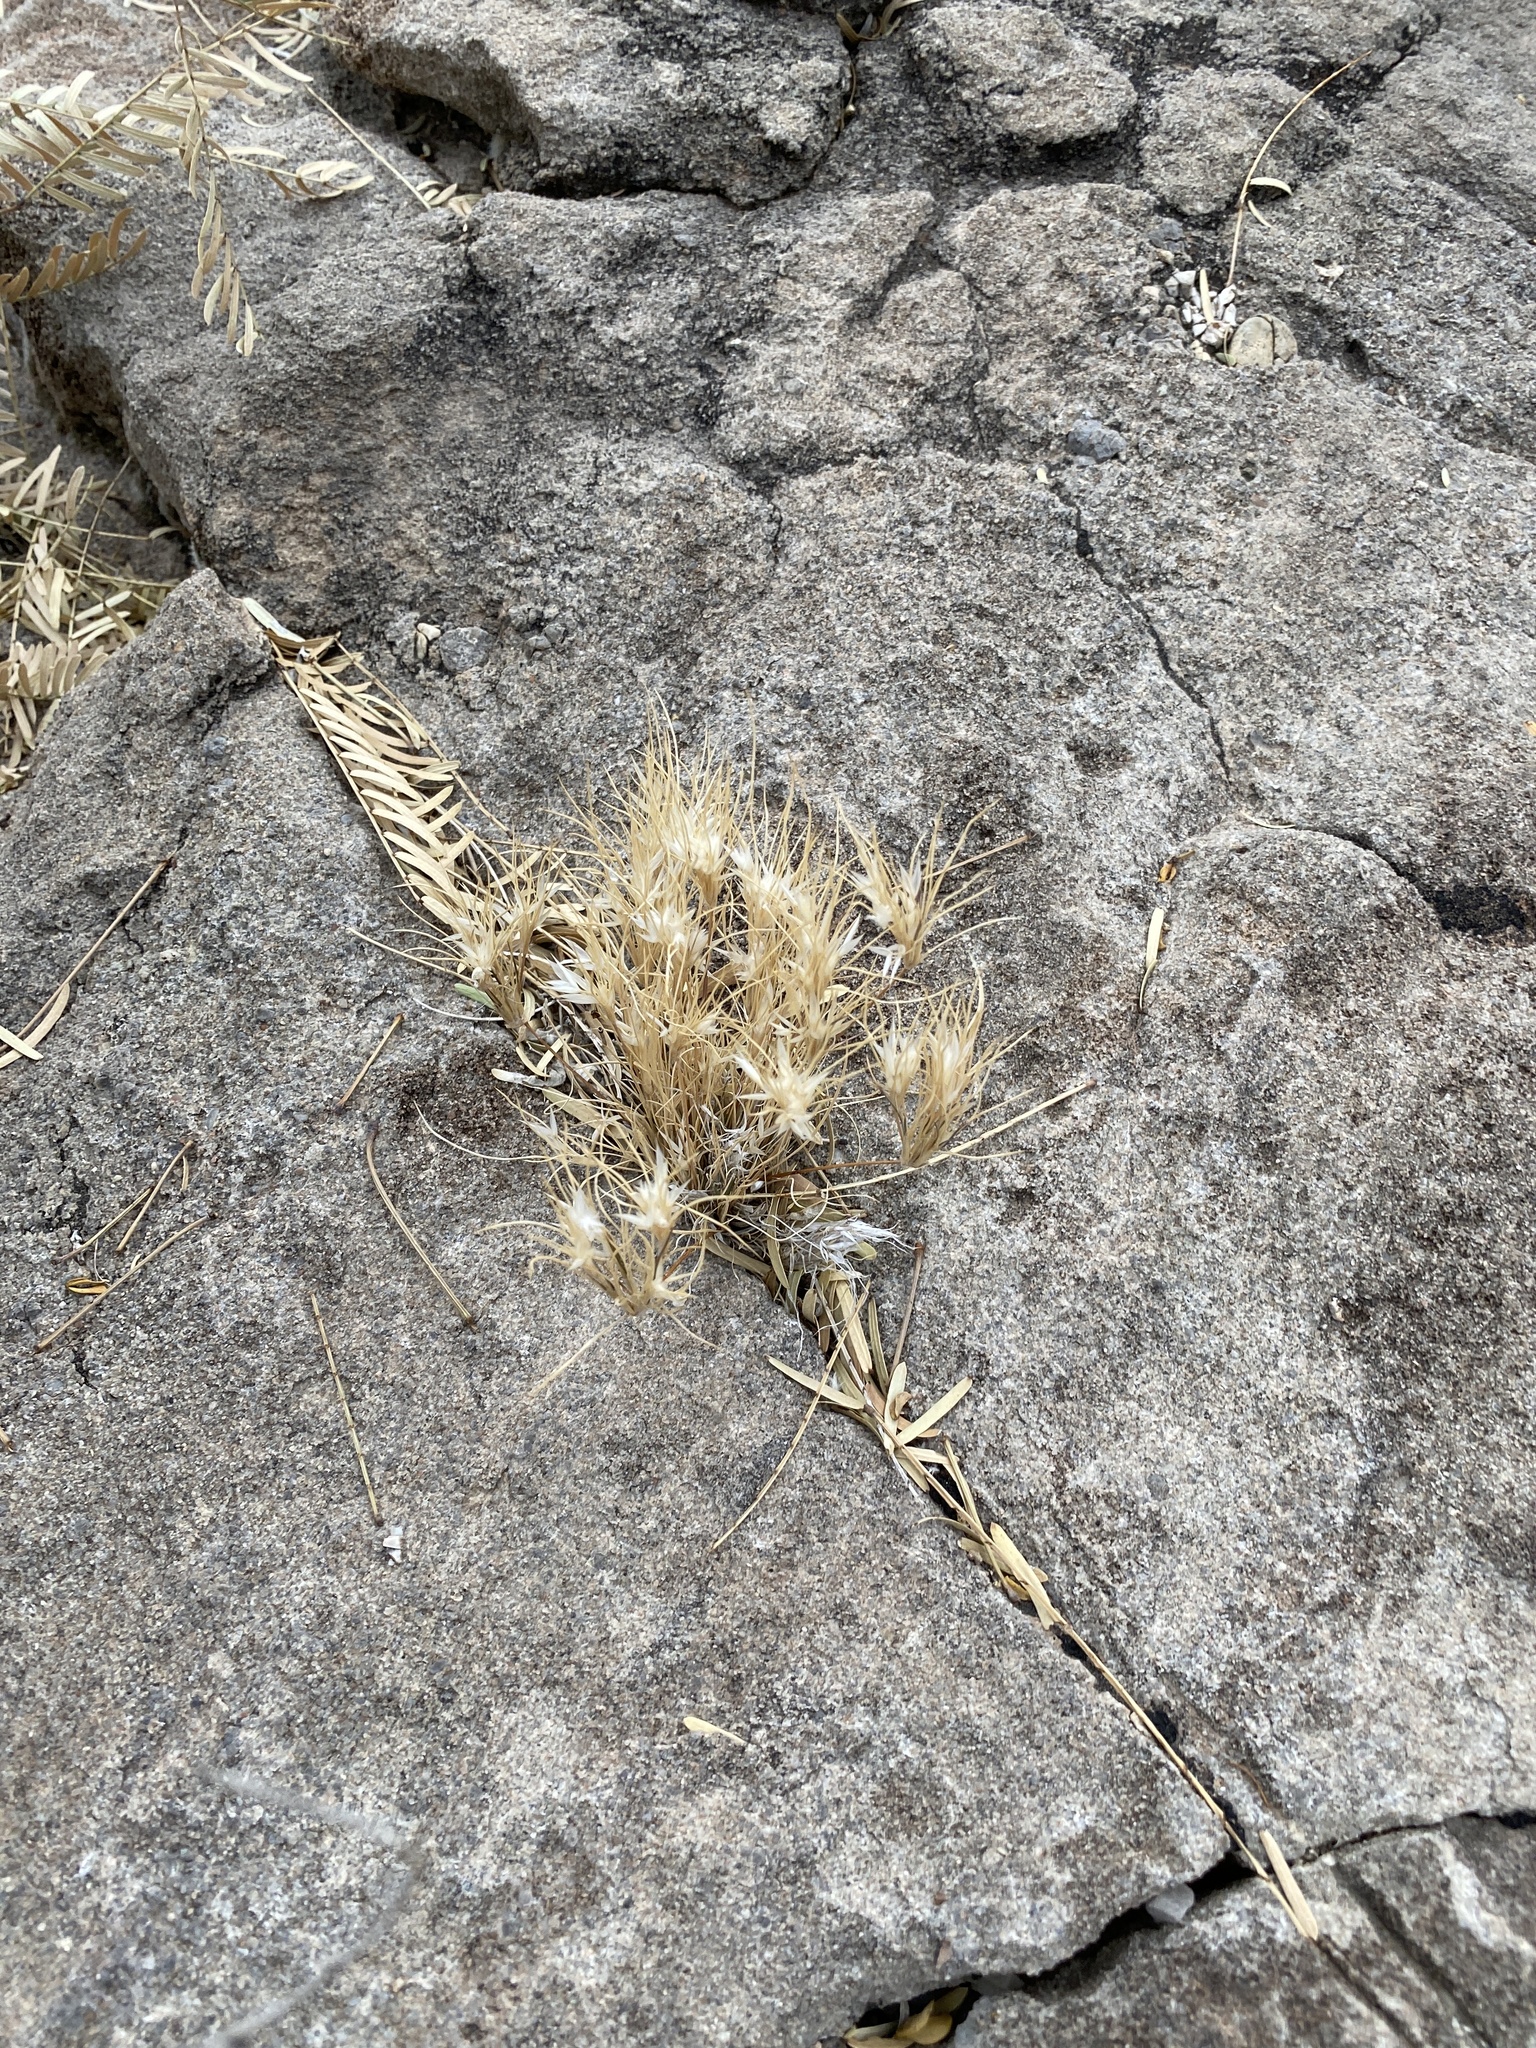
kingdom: Plantae
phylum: Tracheophyta
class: Liliopsida
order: Poales
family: Poaceae
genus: Dasyochloa
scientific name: Dasyochloa pulchella
